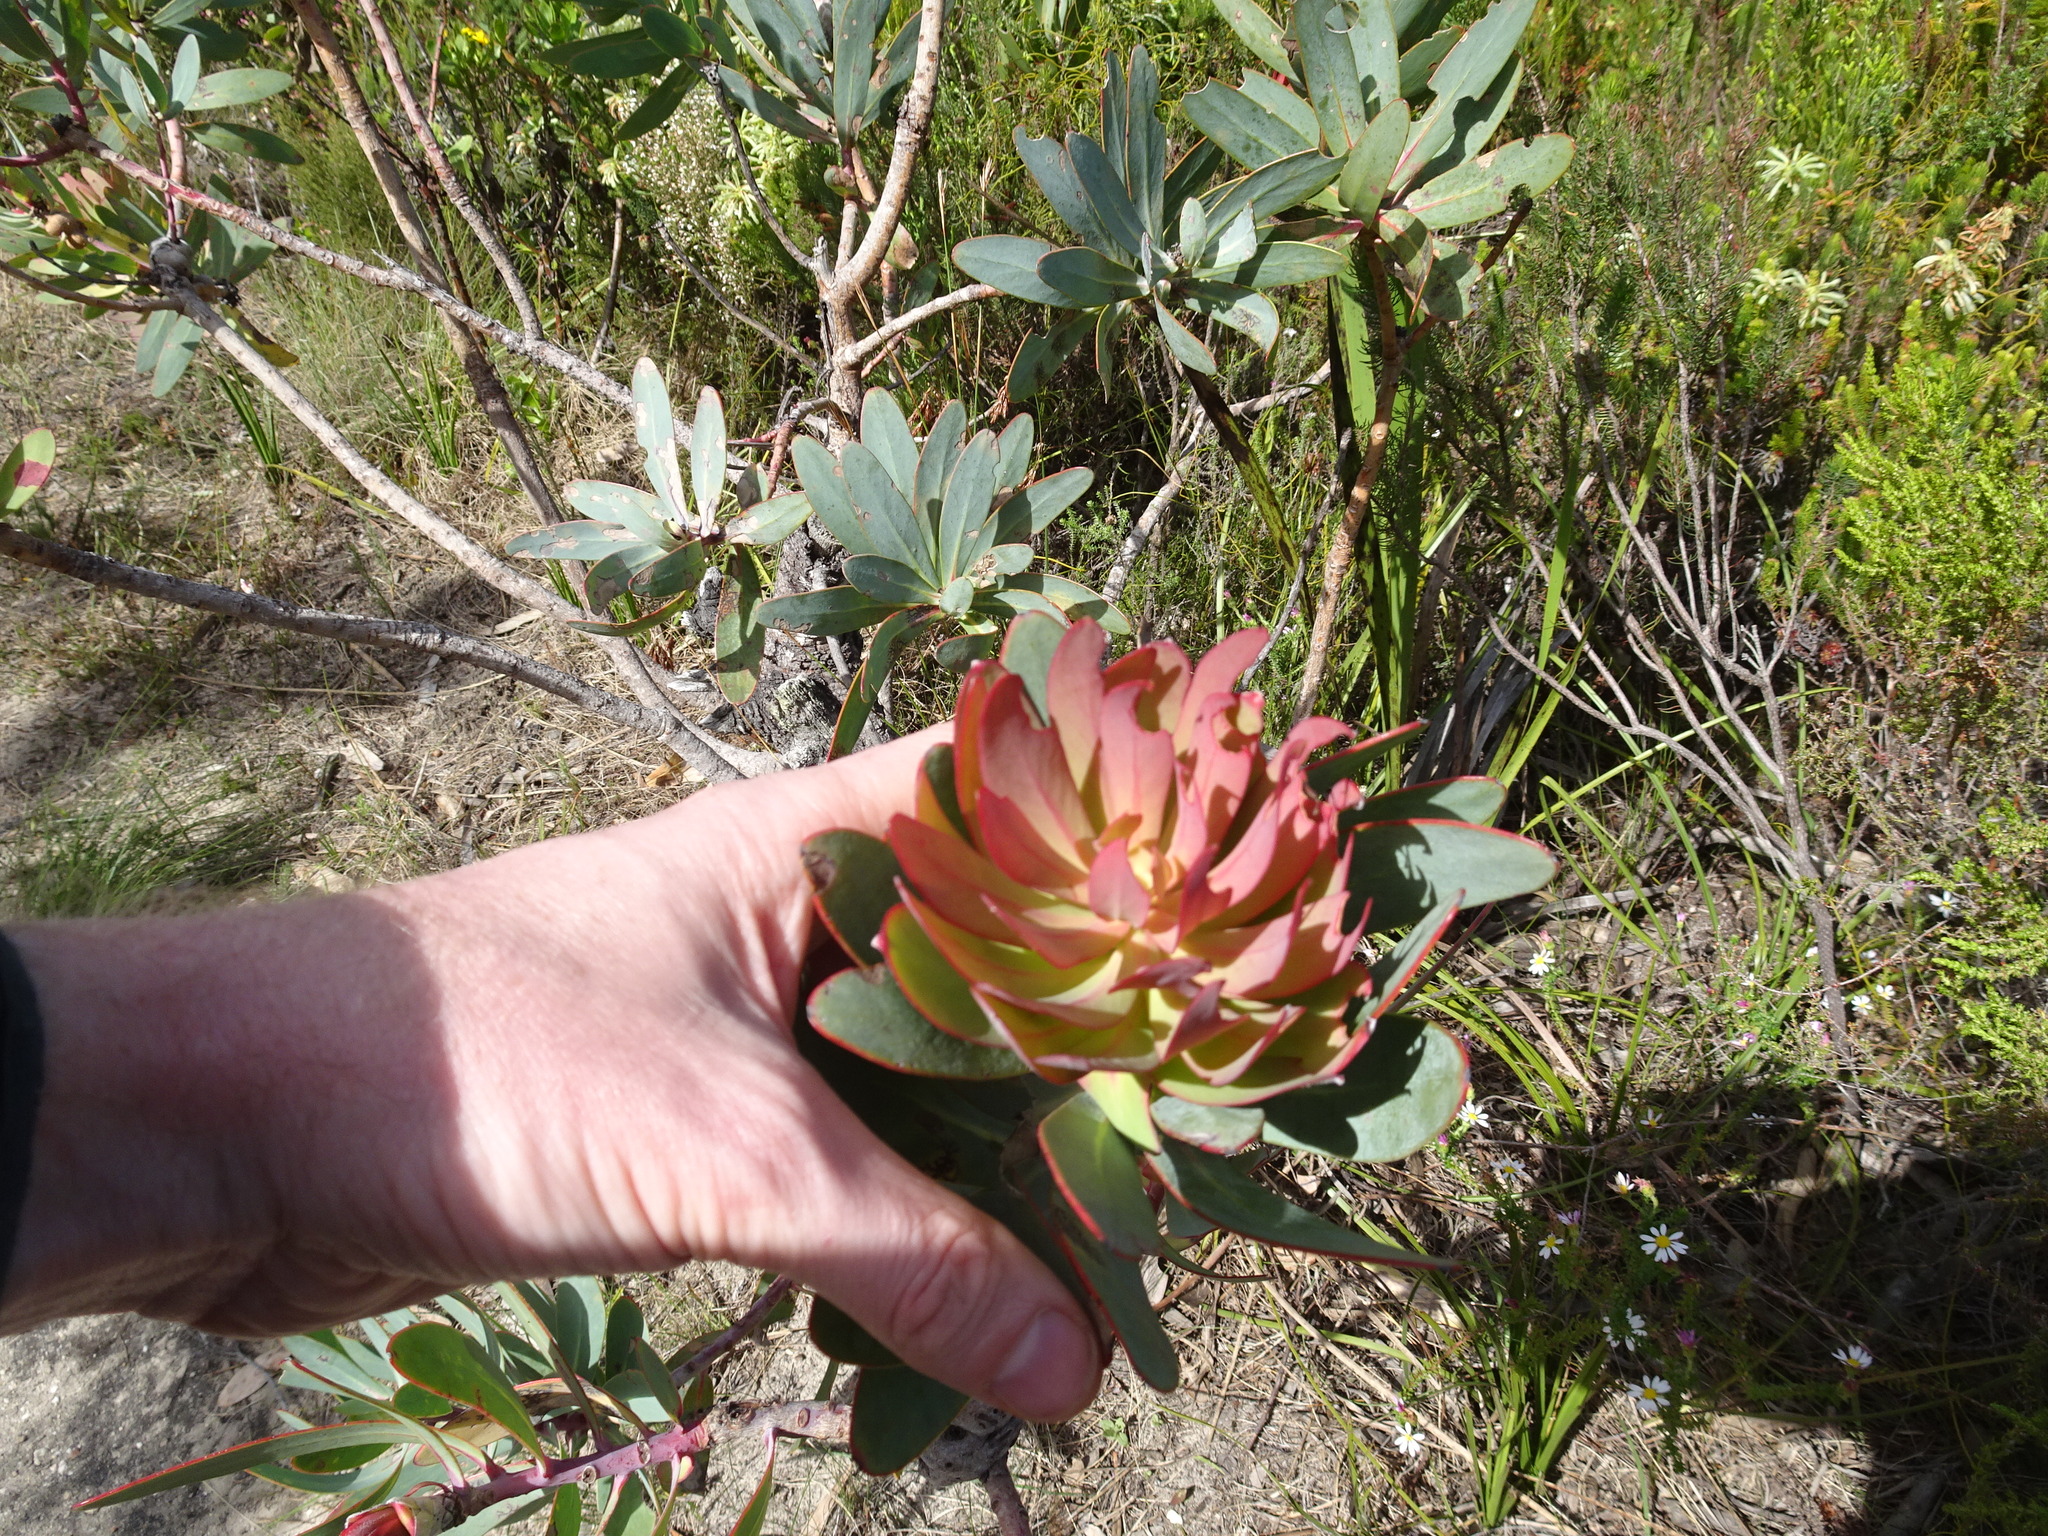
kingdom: Plantae
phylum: Tracheophyta
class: Magnoliopsida
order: Proteales
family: Proteaceae
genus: Protea
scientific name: Protea nitida
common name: Tree protea
